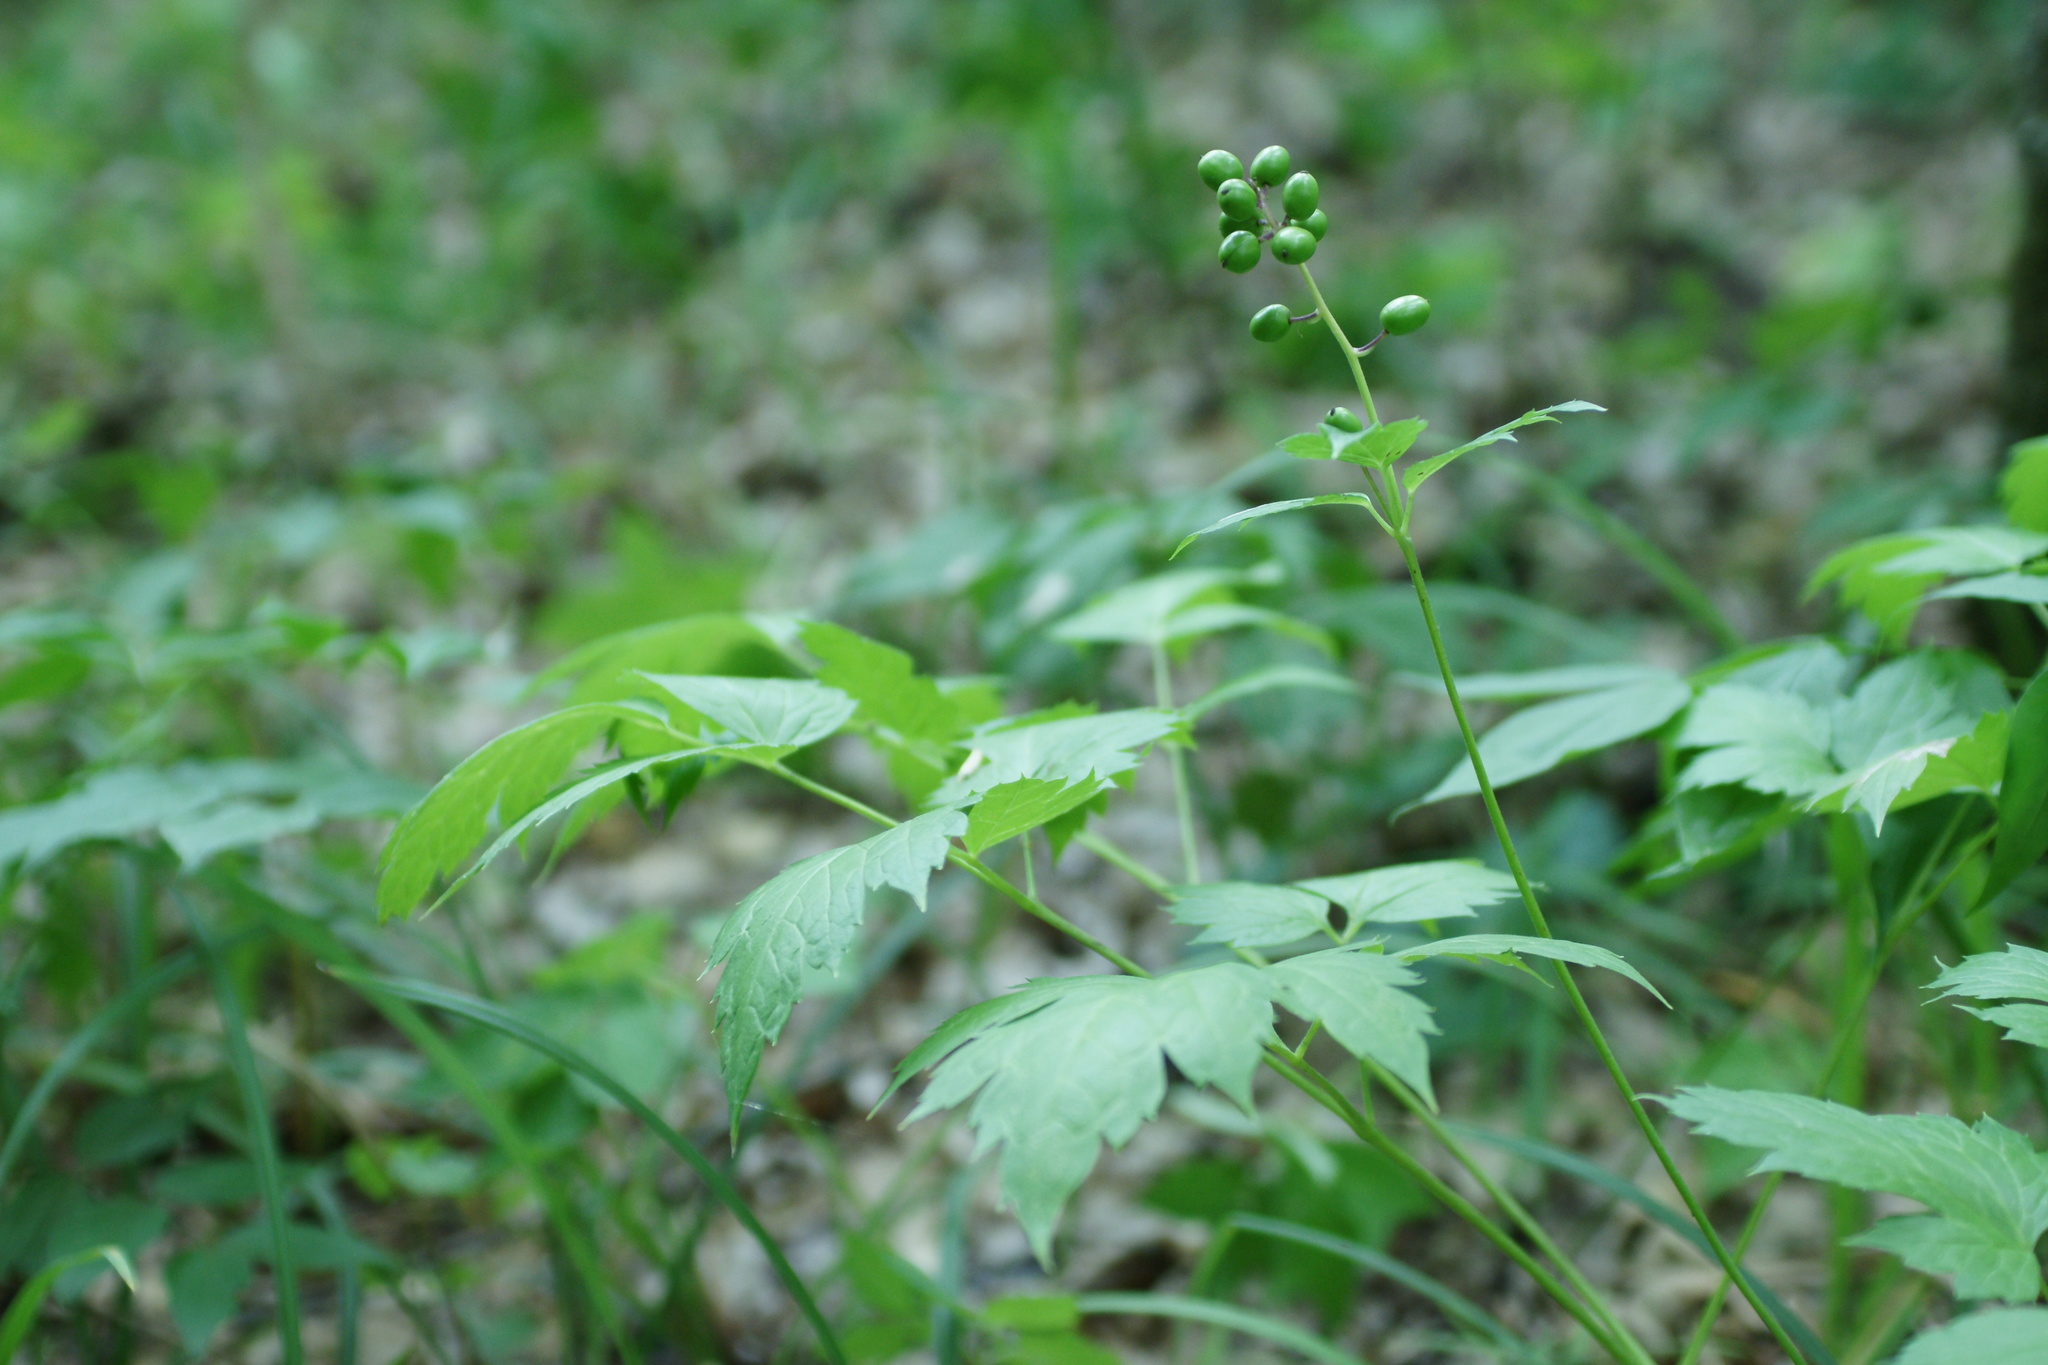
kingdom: Plantae
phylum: Tracheophyta
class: Magnoliopsida
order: Ranunculales
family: Ranunculaceae
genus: Actaea
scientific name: Actaea spicata
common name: Baneberry
